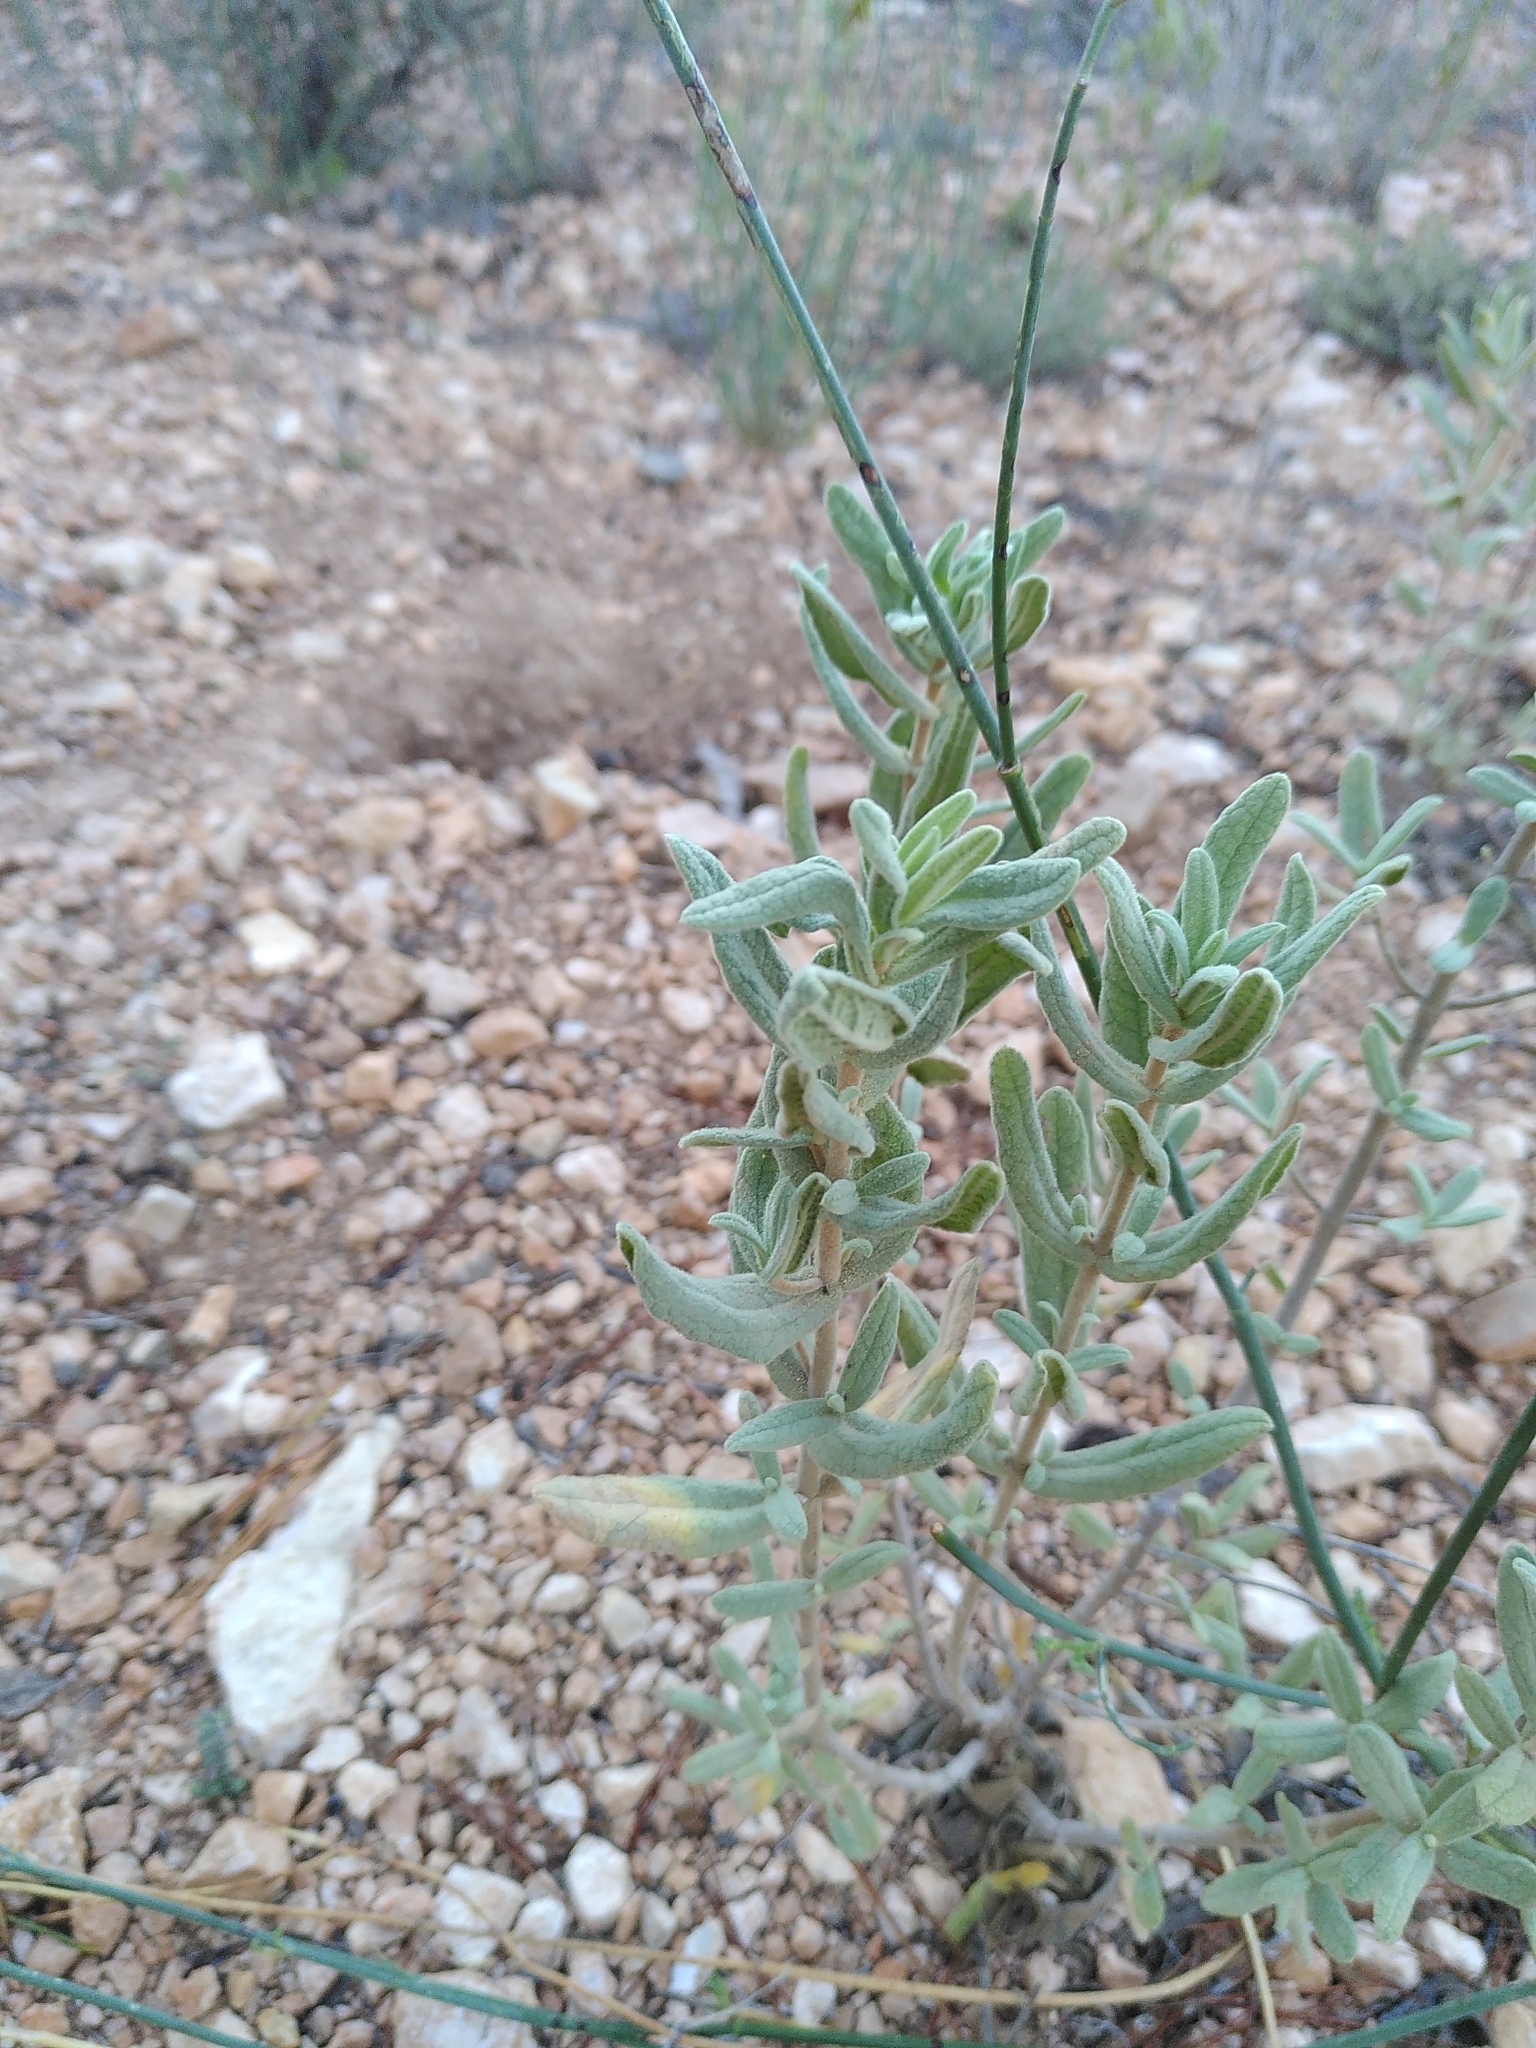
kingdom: Plantae
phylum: Tracheophyta
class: Magnoliopsida
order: Malvales
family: Cistaceae
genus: Cistus
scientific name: Cistus albidus
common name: White-leaf rock-rose
